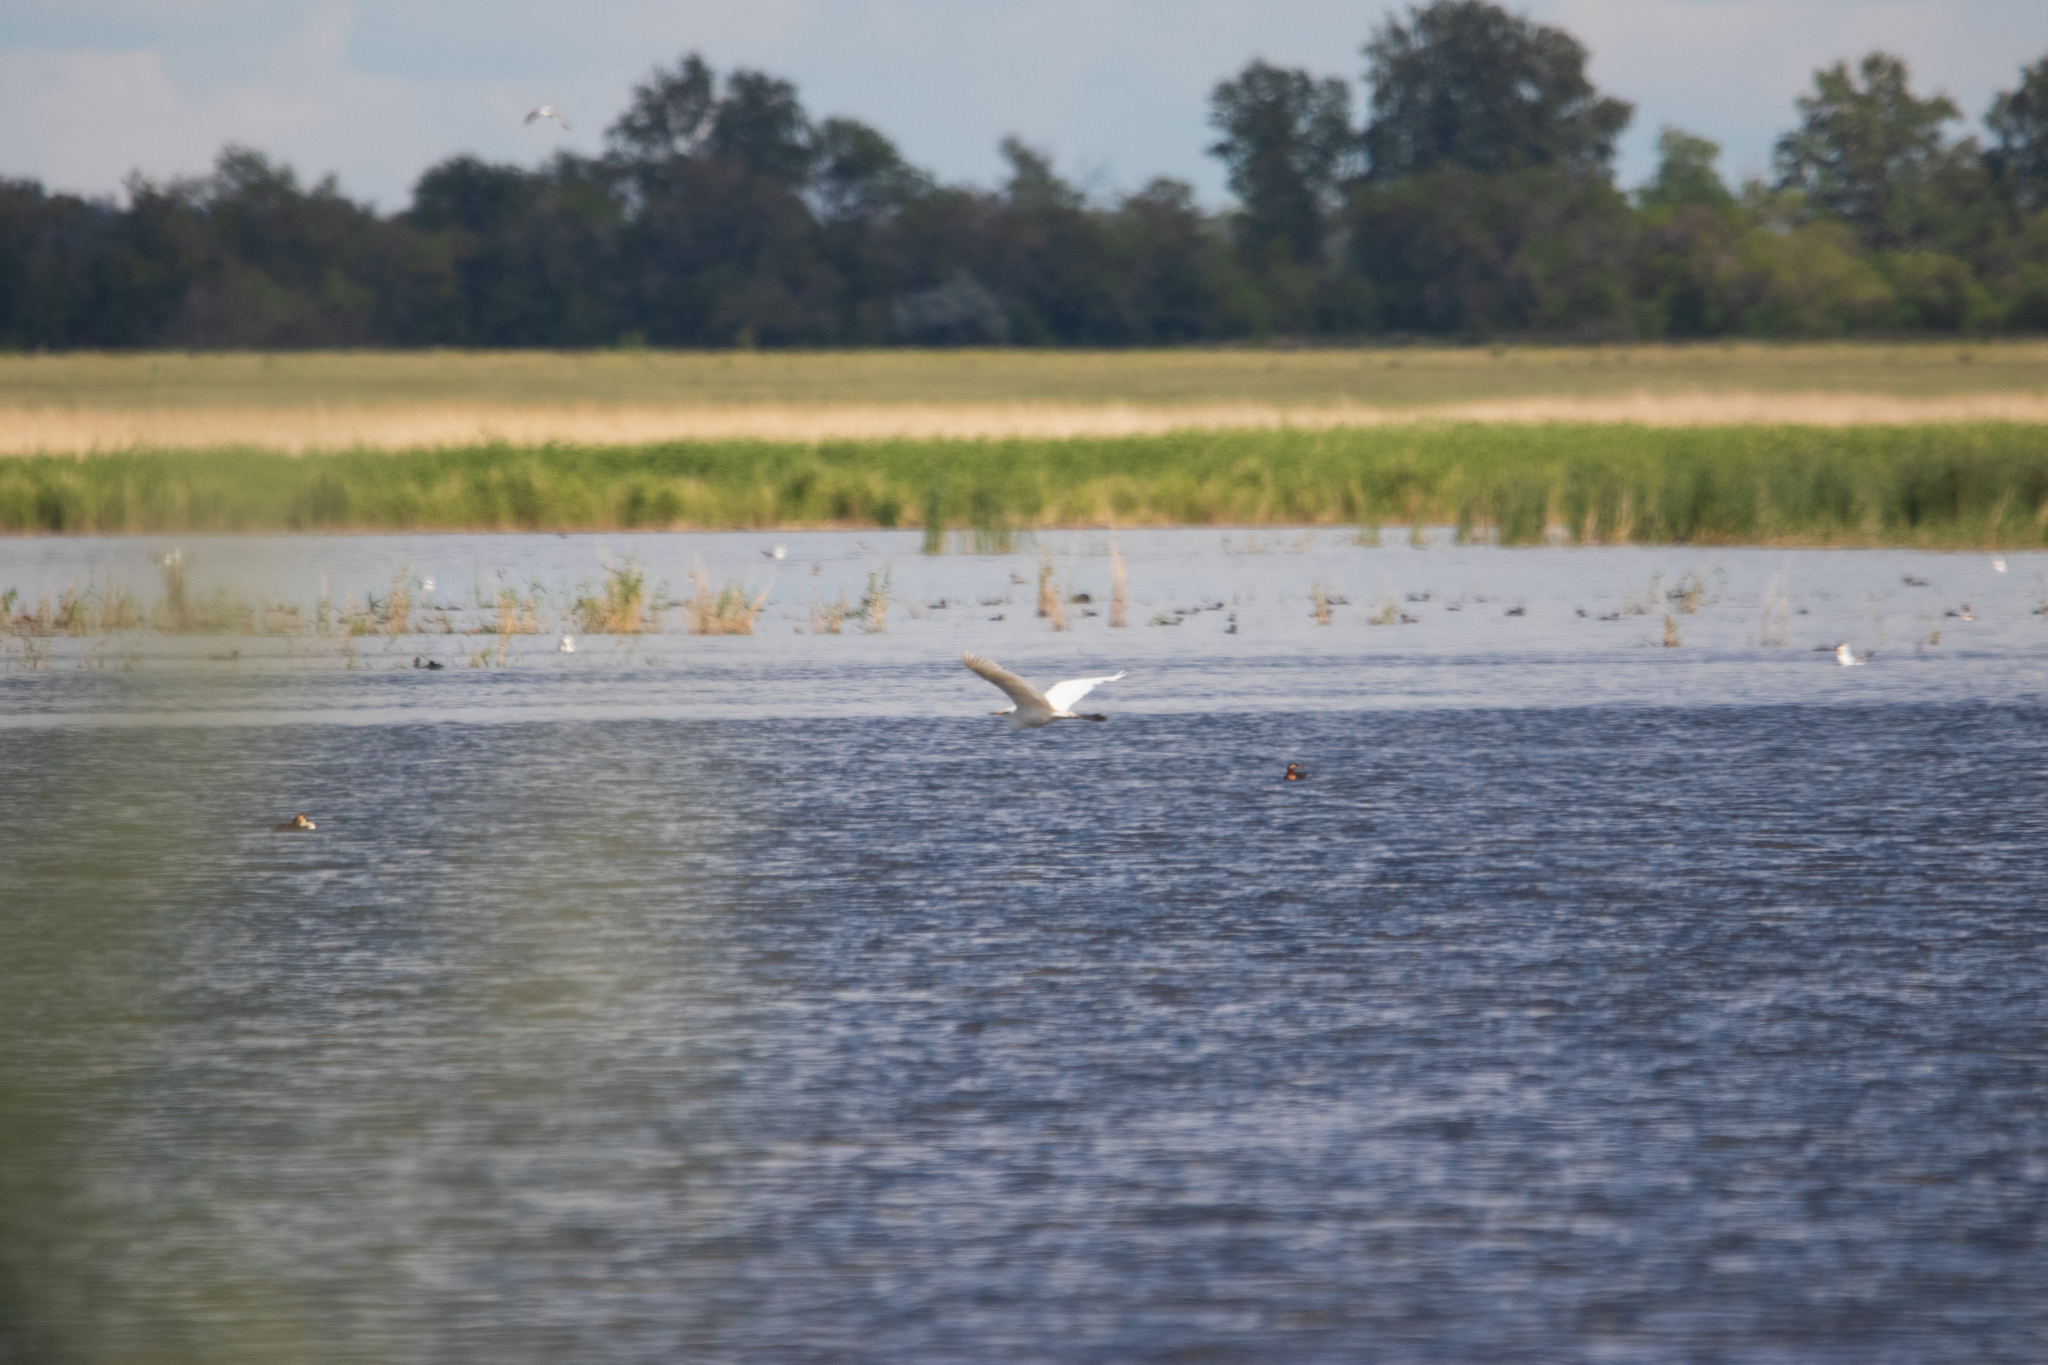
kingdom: Animalia
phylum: Chordata
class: Aves
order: Pelecaniformes
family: Ardeidae
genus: Ardea
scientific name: Ardea alba
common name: Great egret
